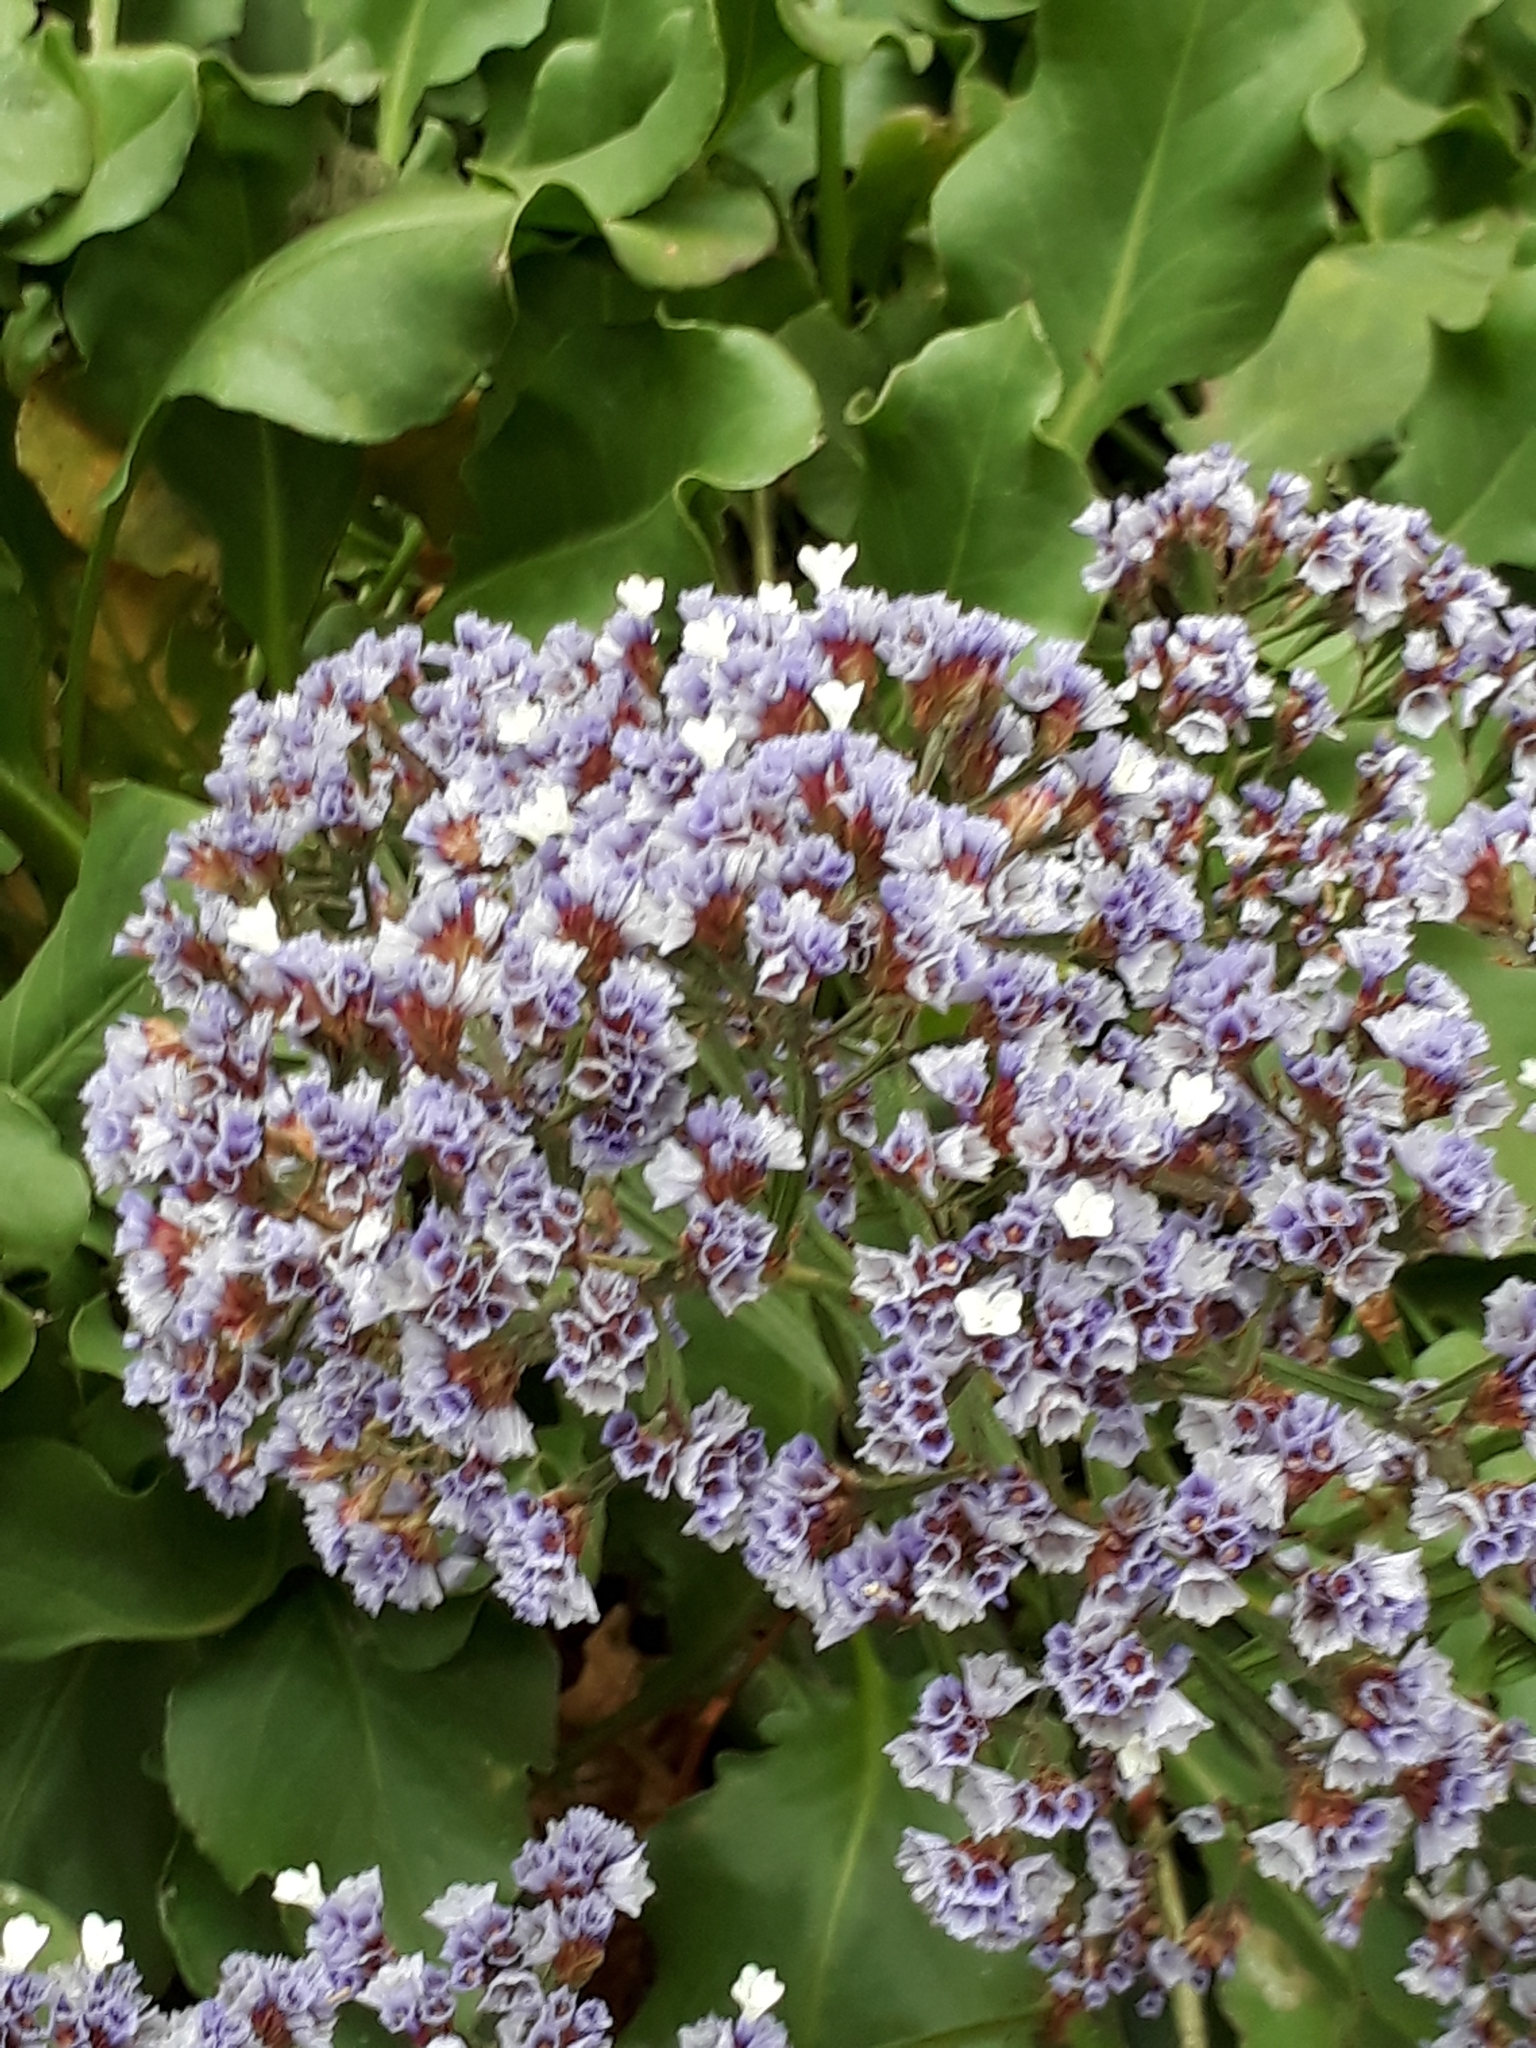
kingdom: Plantae
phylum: Tracheophyta
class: Magnoliopsida
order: Caryophyllales
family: Plumbaginaceae
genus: Limonium
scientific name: Limonium perezii
